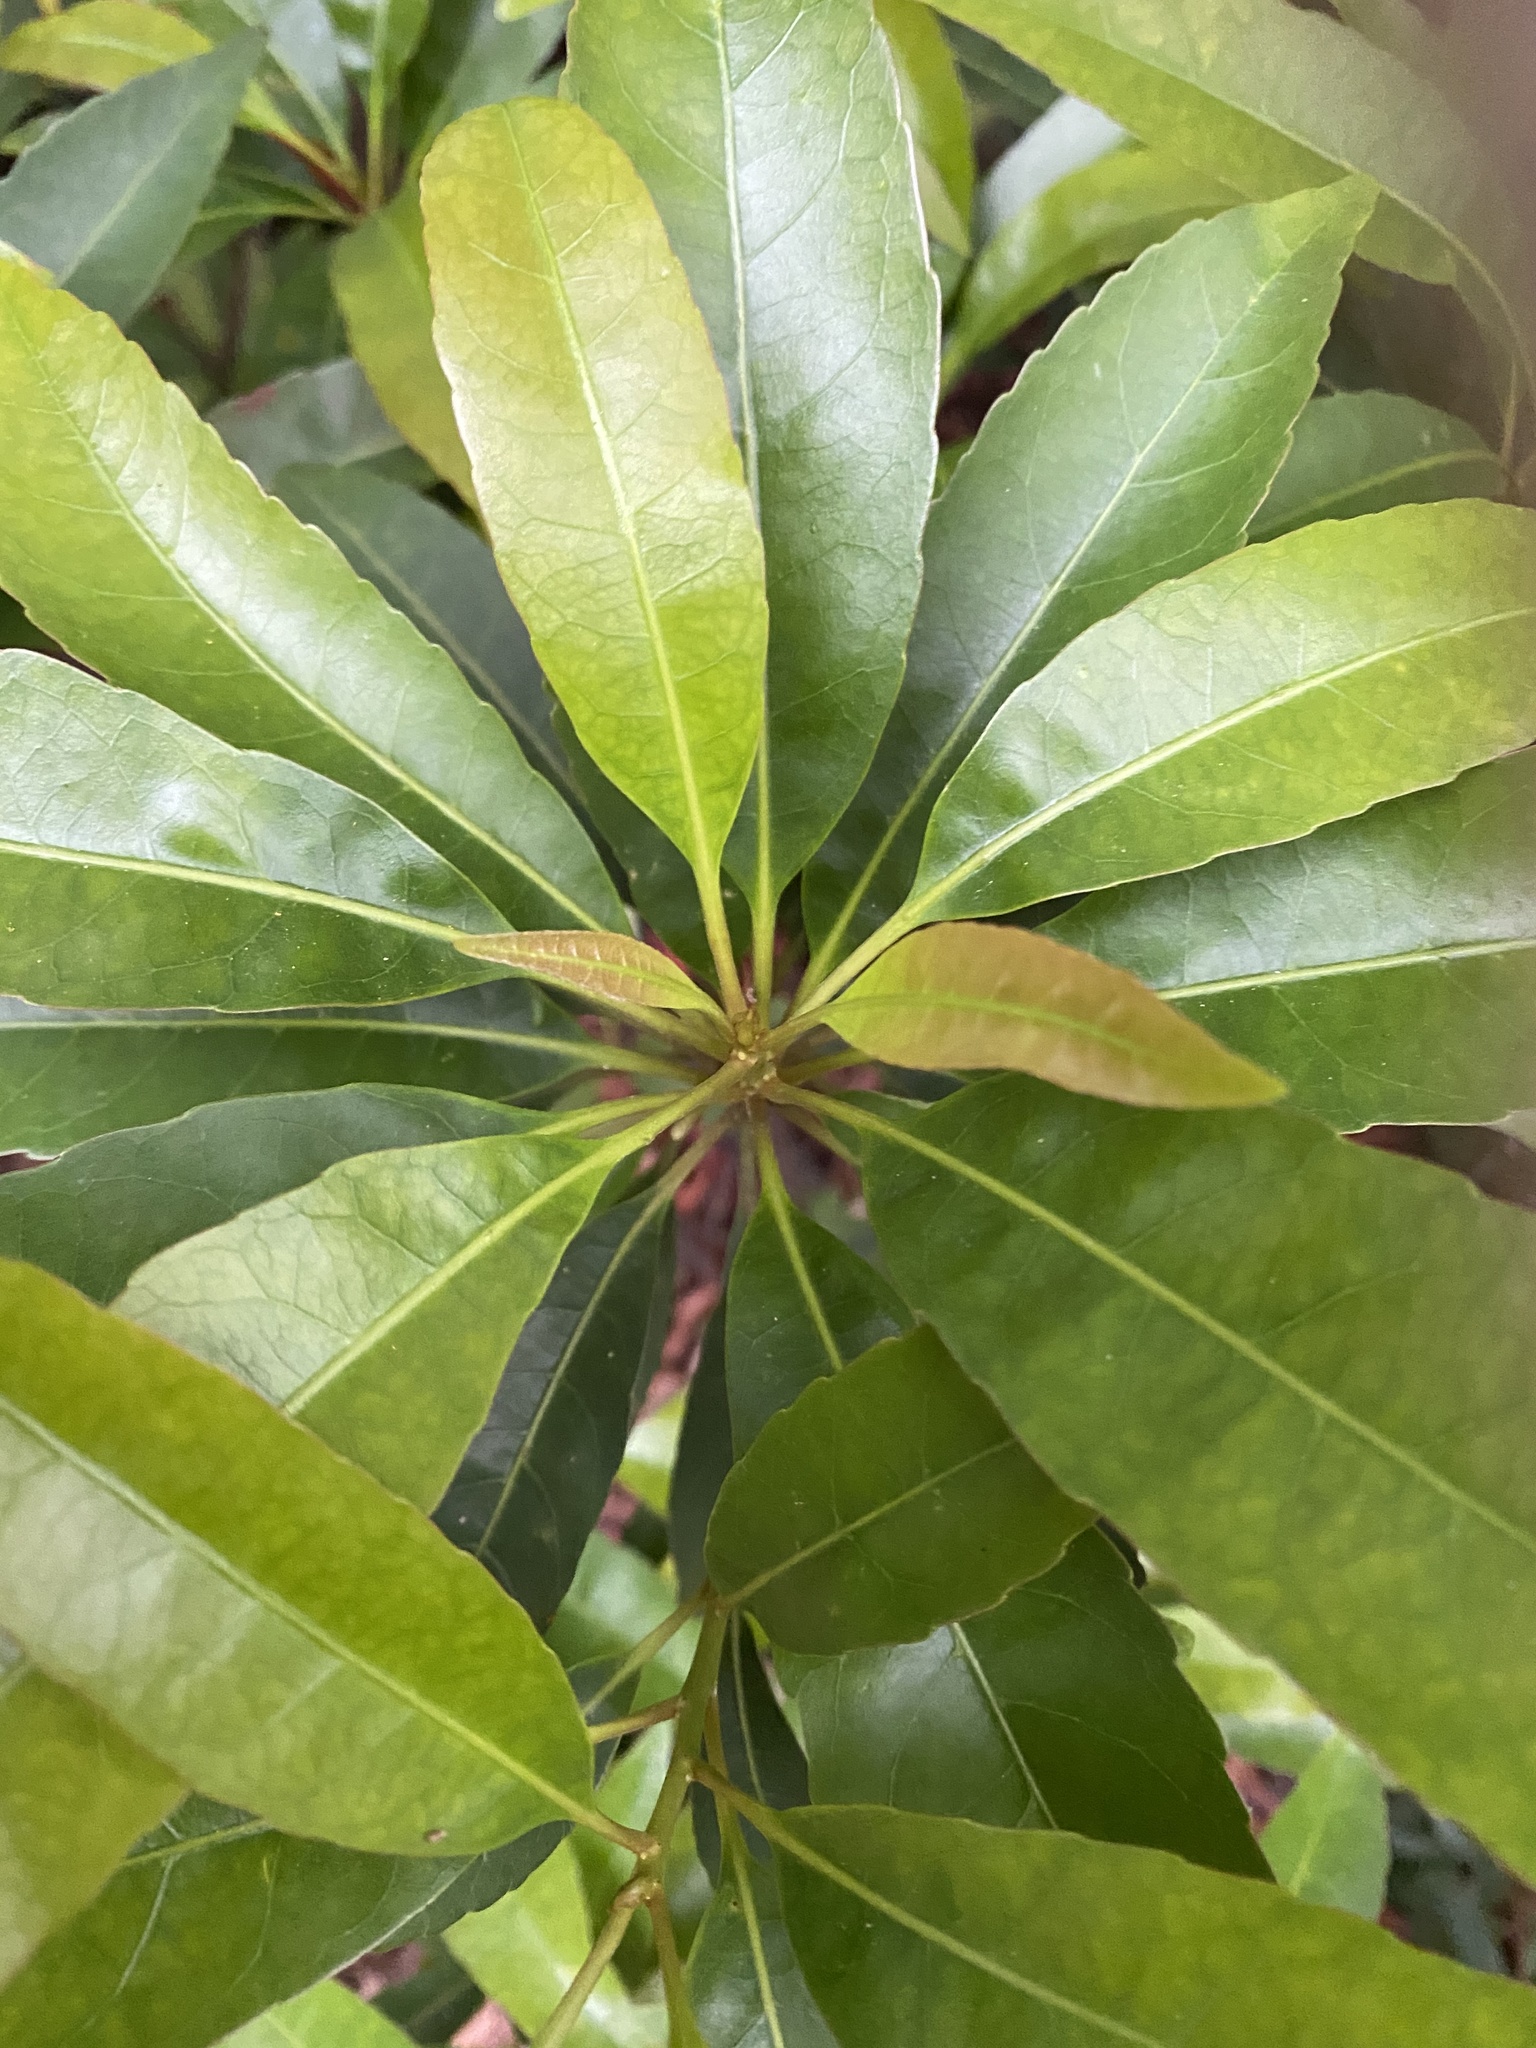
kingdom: Plantae
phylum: Tracheophyta
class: Magnoliopsida
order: Oxalidales
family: Elaeocarpaceae
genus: Elaeocarpus
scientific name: Elaeocarpus decipiens
